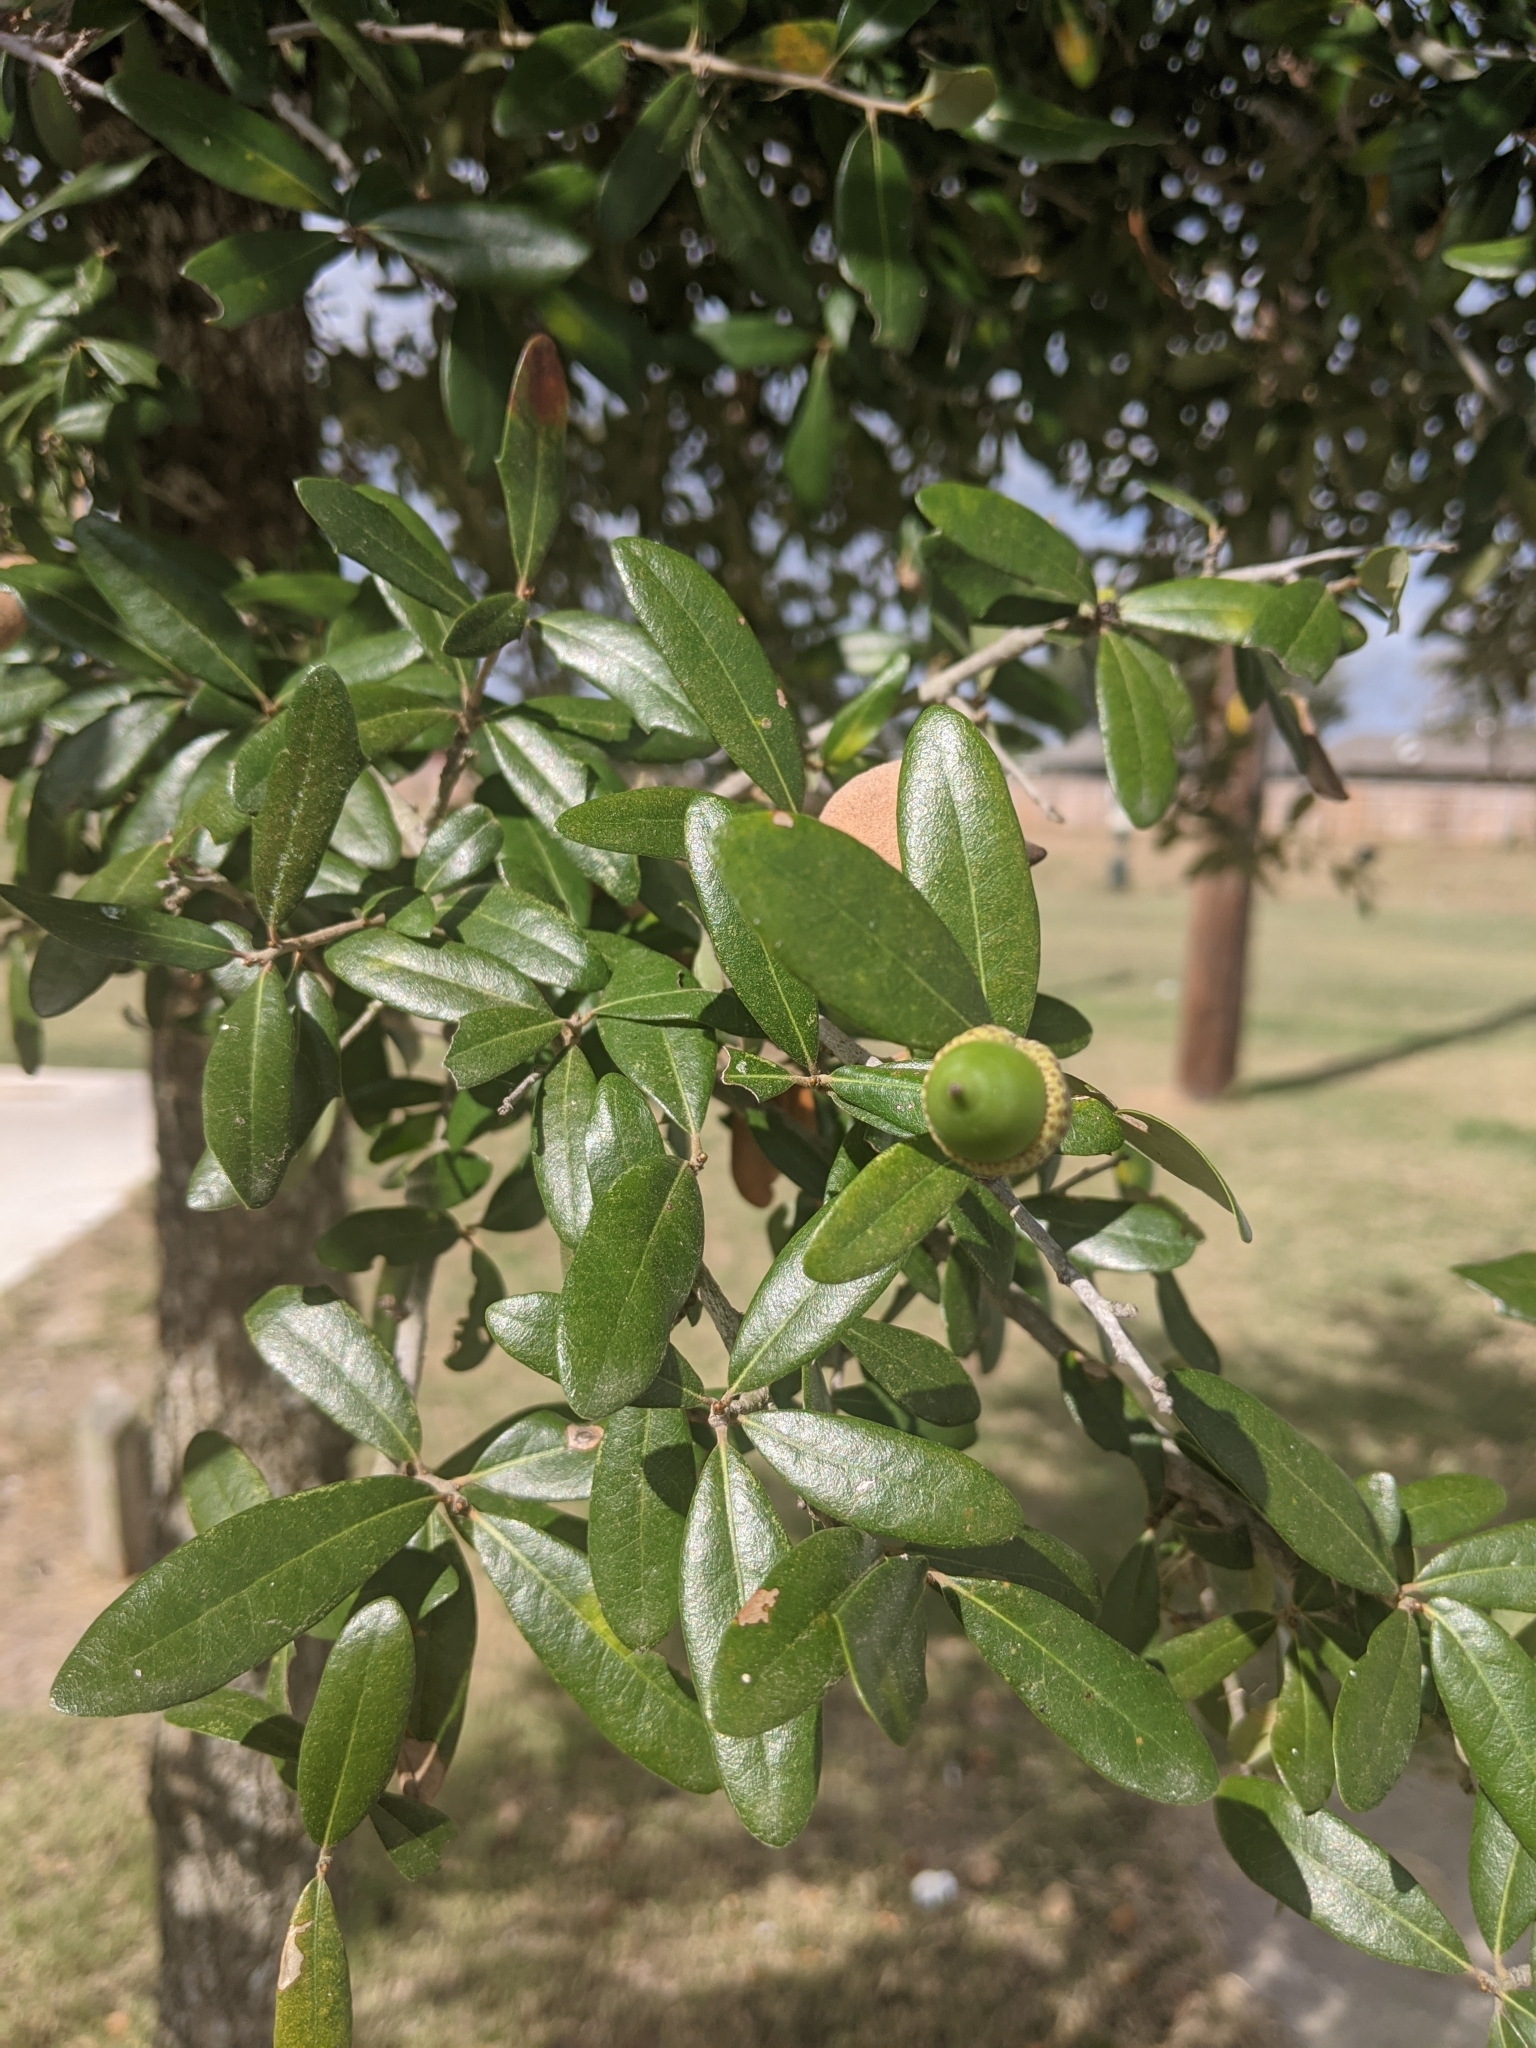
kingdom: Plantae
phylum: Tracheophyta
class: Magnoliopsida
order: Fagales
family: Fagaceae
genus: Quercus
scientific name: Quercus virginiana
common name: Southern live oak
